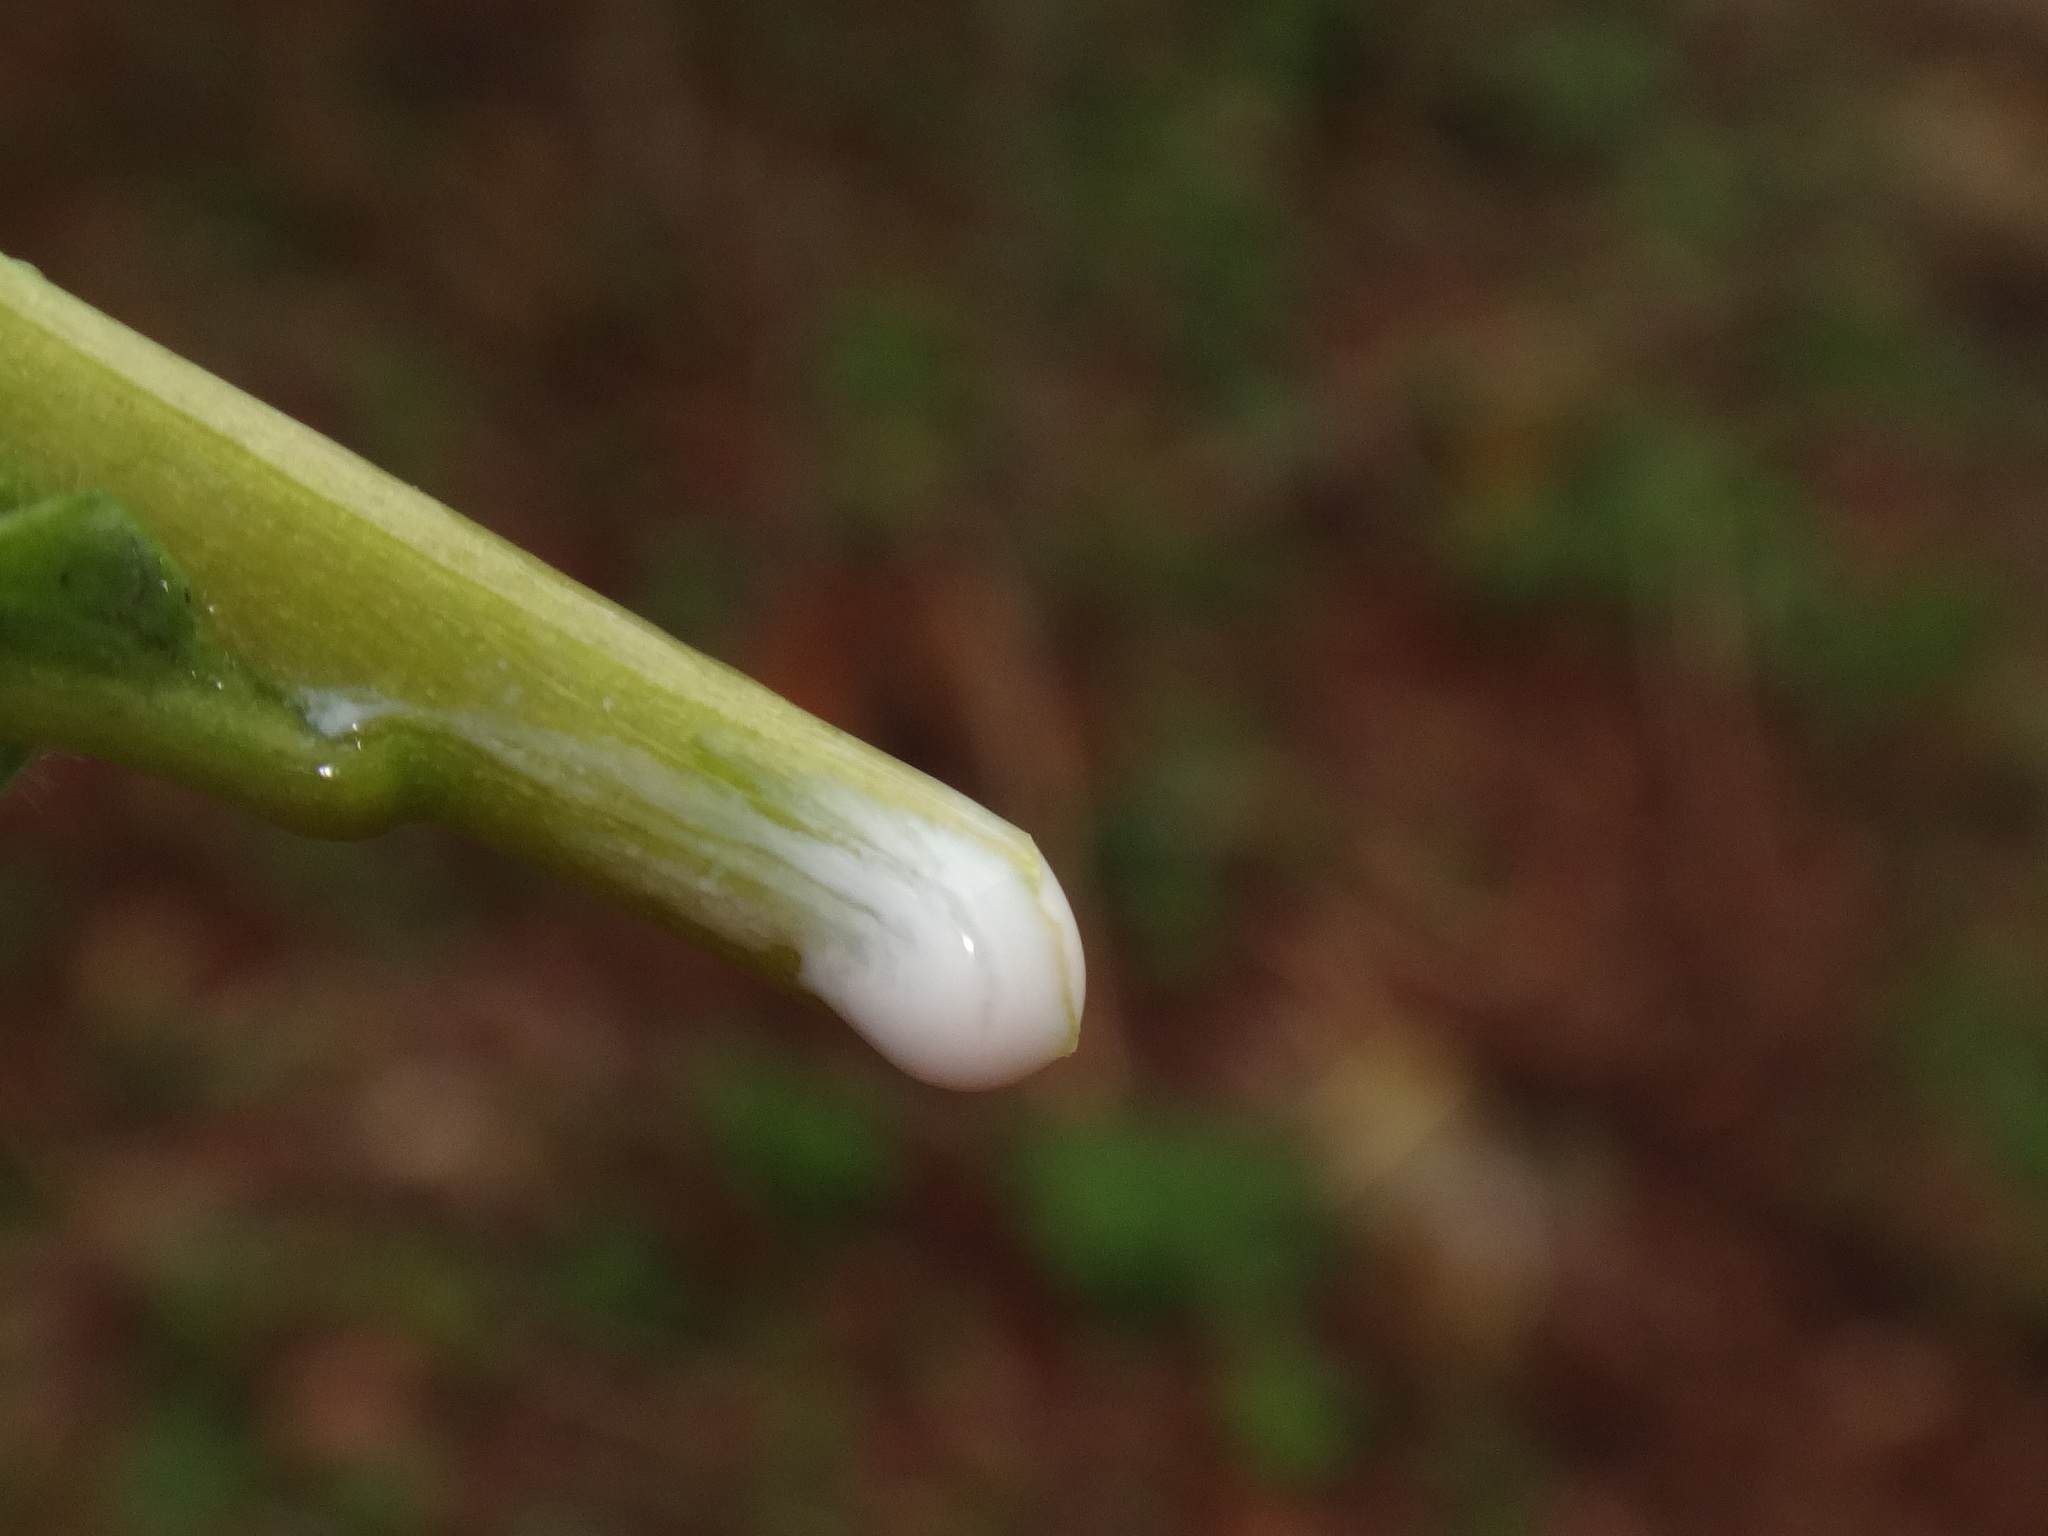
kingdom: Plantae
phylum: Tracheophyta
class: Magnoliopsida
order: Malpighiales
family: Euphorbiaceae
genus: Euphorbia
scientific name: Euphorbia dulcis
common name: Sweet spurge
